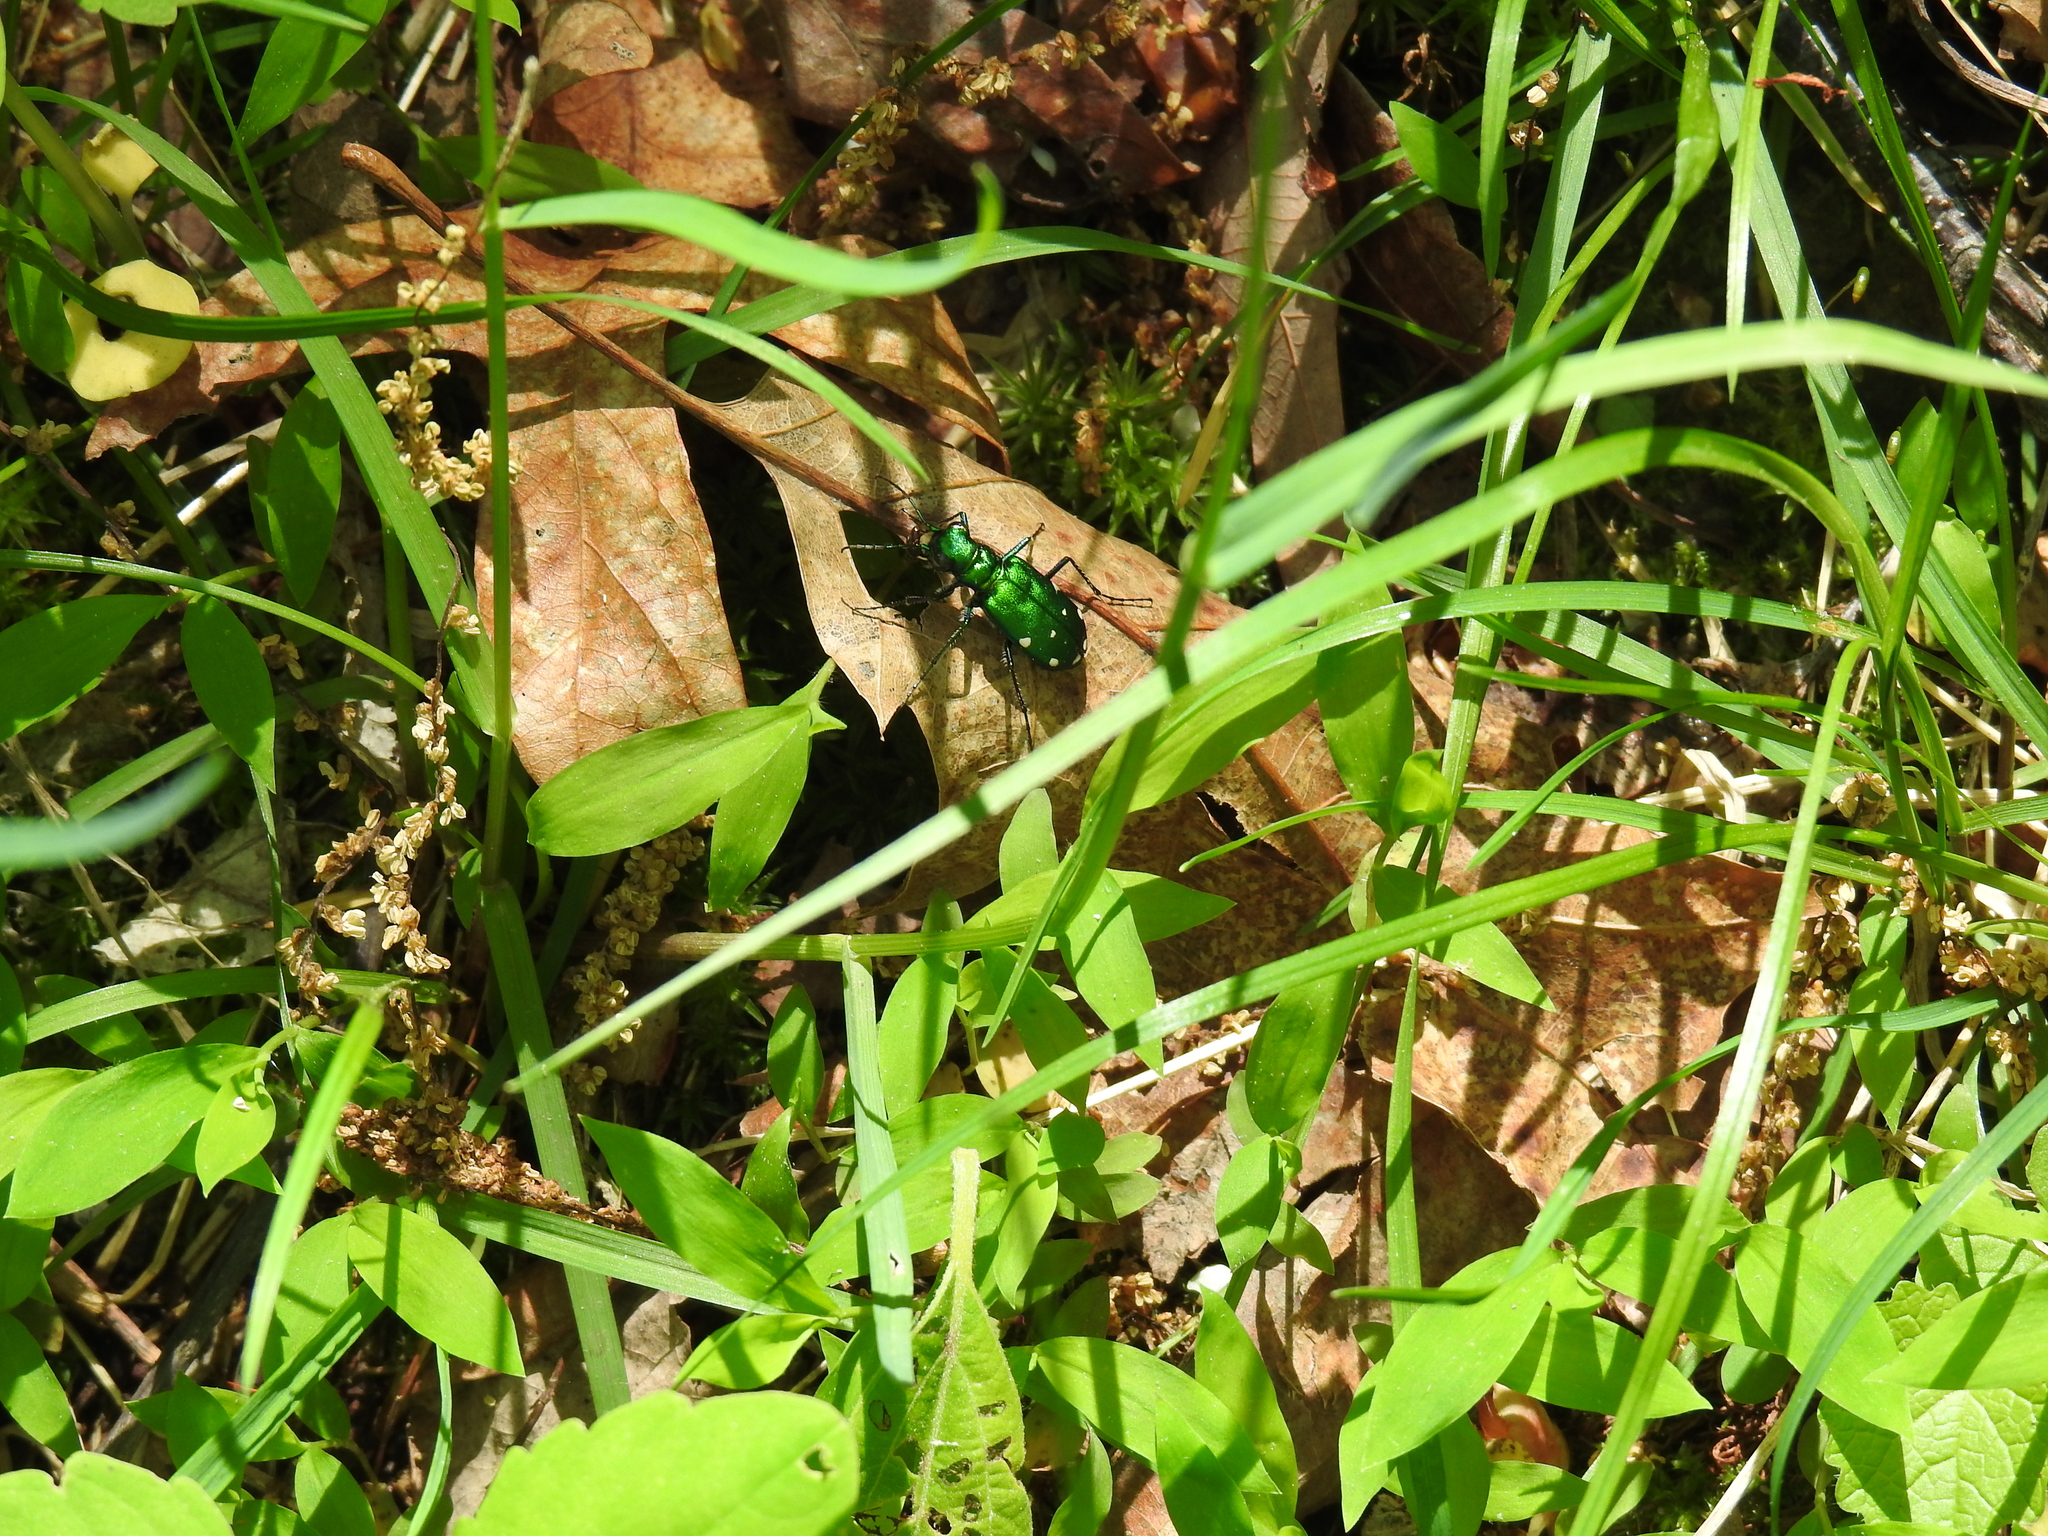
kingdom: Animalia
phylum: Arthropoda
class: Insecta
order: Coleoptera
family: Carabidae
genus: Cicindela
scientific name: Cicindela sexguttata
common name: Six-spotted tiger beetle
